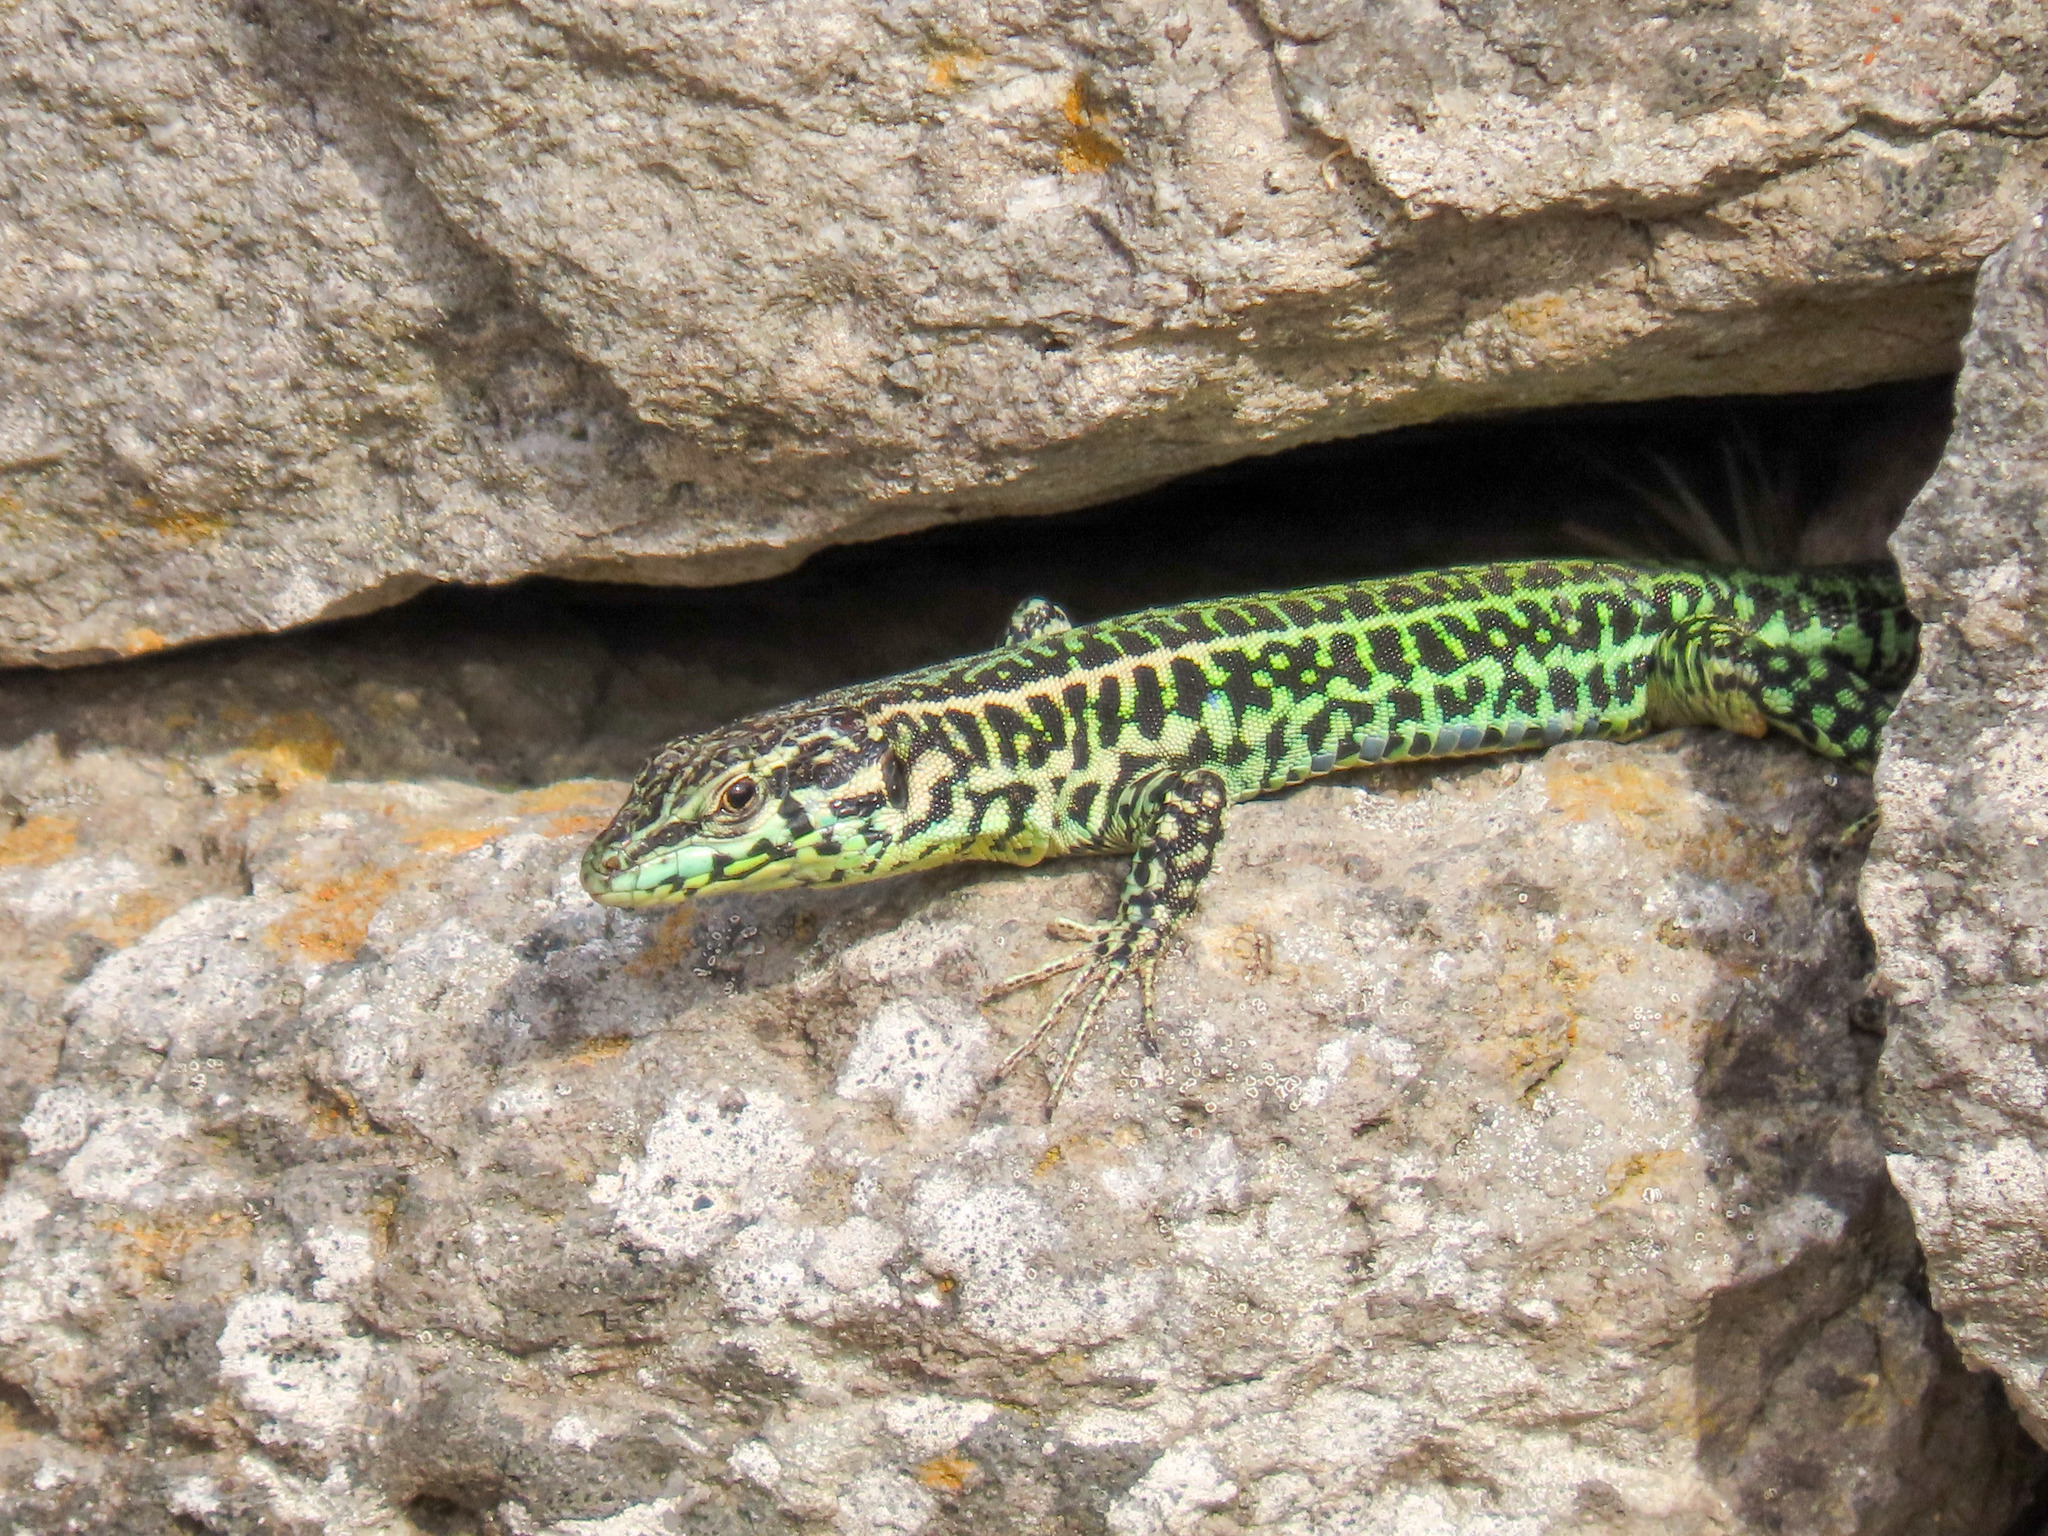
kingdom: Animalia
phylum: Chordata
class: Squamata
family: Lacertidae
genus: Podarcis
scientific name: Podarcis tiliguerta
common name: Tyrrhenian wall lizard
